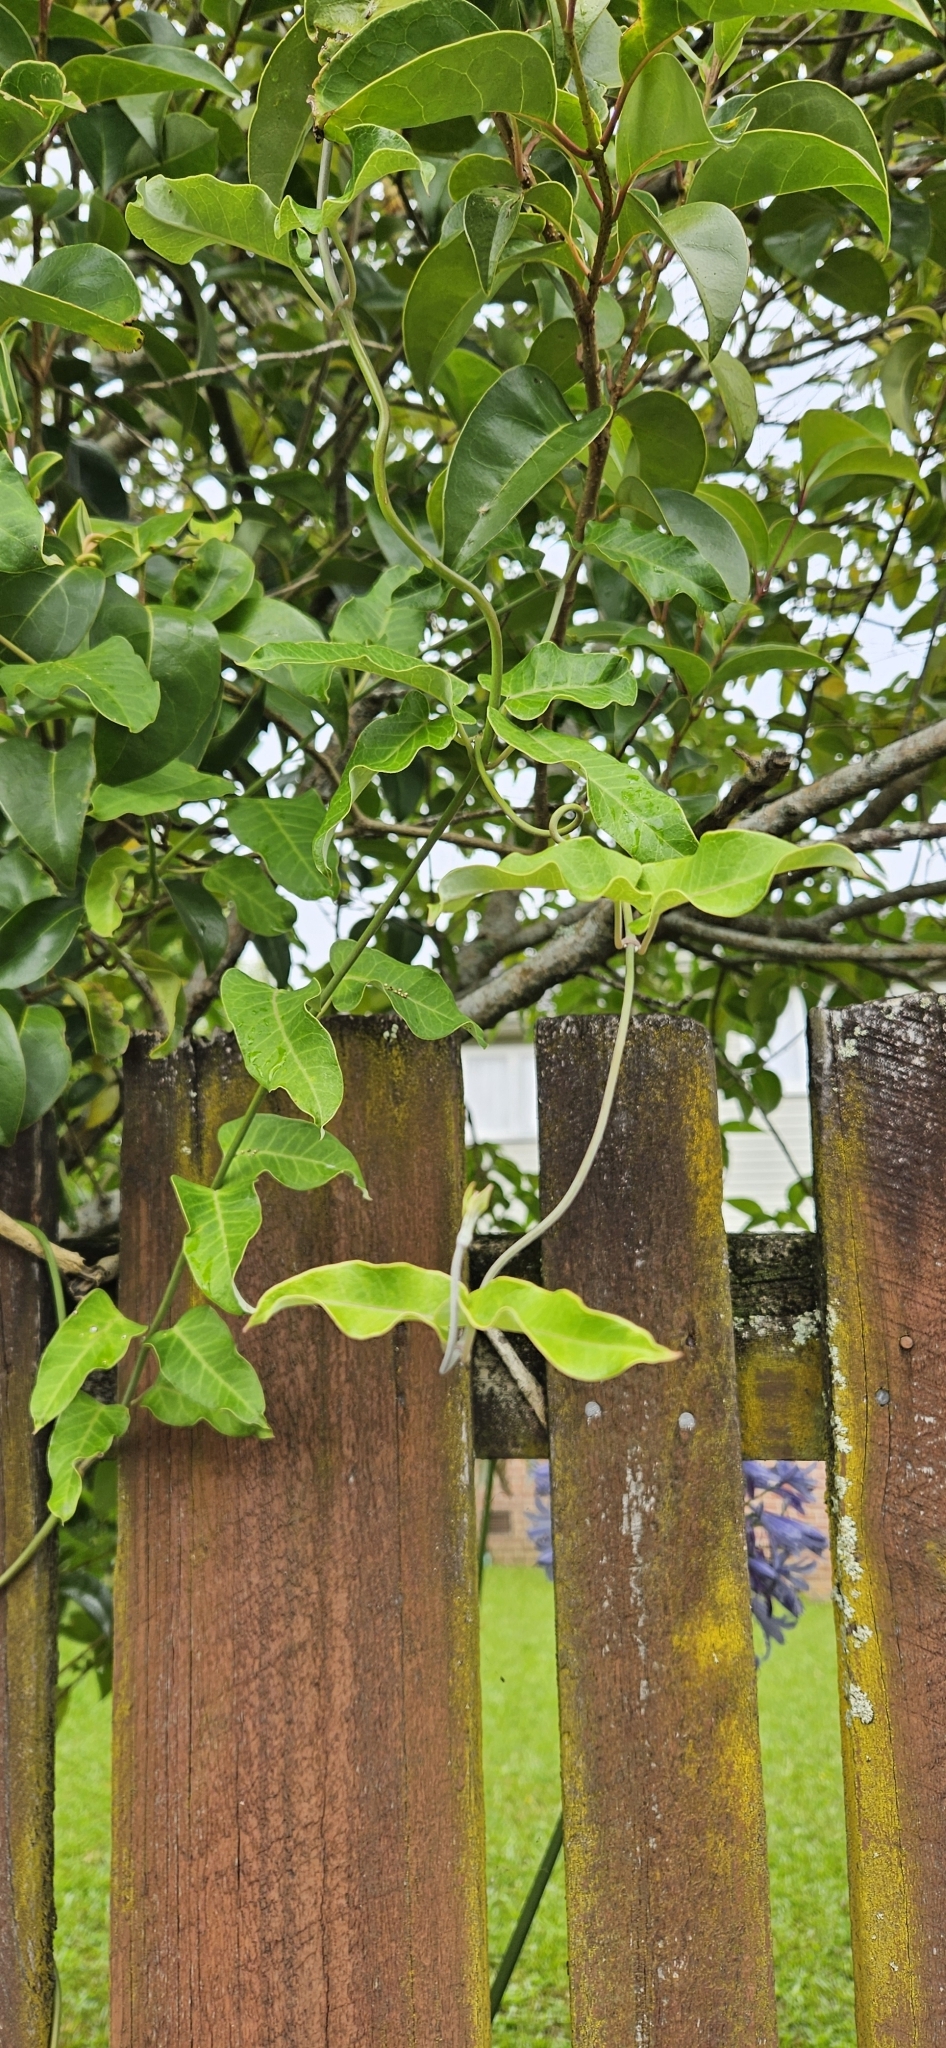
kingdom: Plantae
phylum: Tracheophyta
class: Magnoliopsida
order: Gentianales
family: Apocynaceae
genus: Araujia
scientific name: Araujia sericifera
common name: White bladderflower
